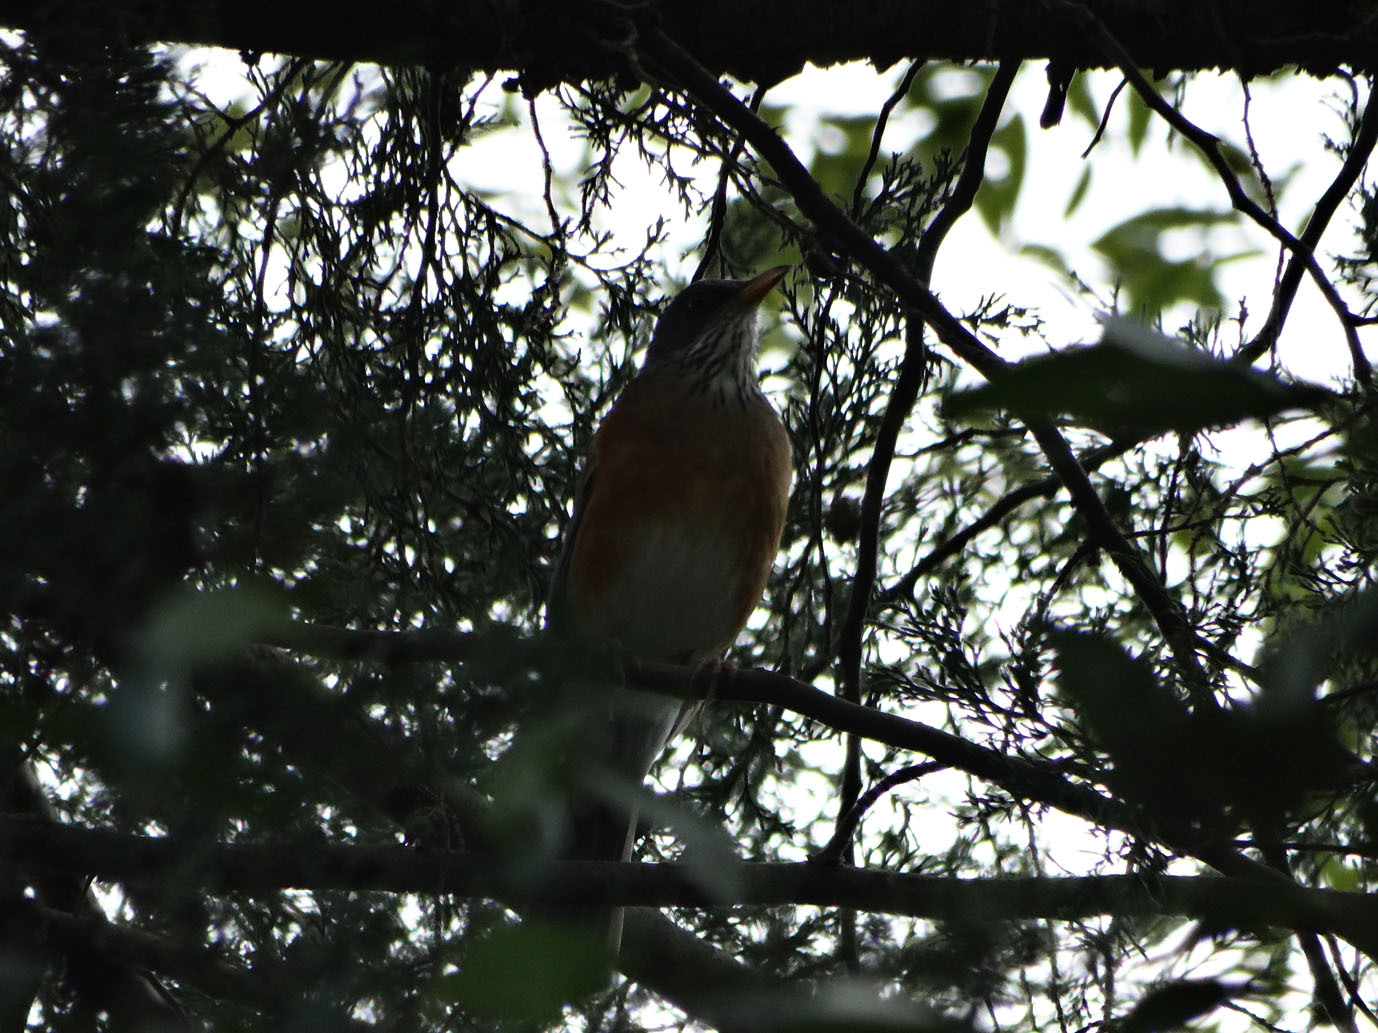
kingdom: Animalia
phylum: Chordata
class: Aves
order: Passeriformes
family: Turdidae
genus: Turdus
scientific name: Turdus rufopalliatus
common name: Rufous-backed robin
